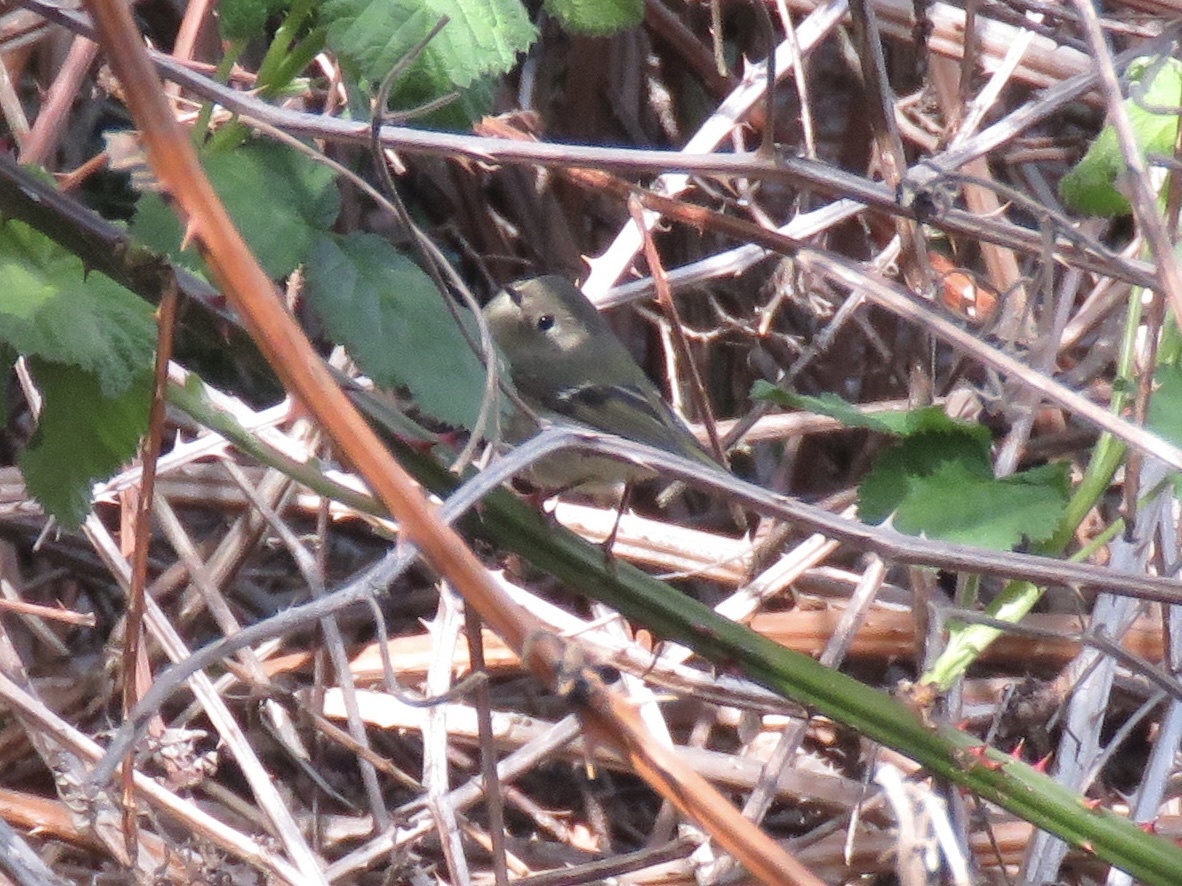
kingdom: Animalia
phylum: Chordata
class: Aves
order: Passeriformes
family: Regulidae
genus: Regulus
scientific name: Regulus calendula
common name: Ruby-crowned kinglet
